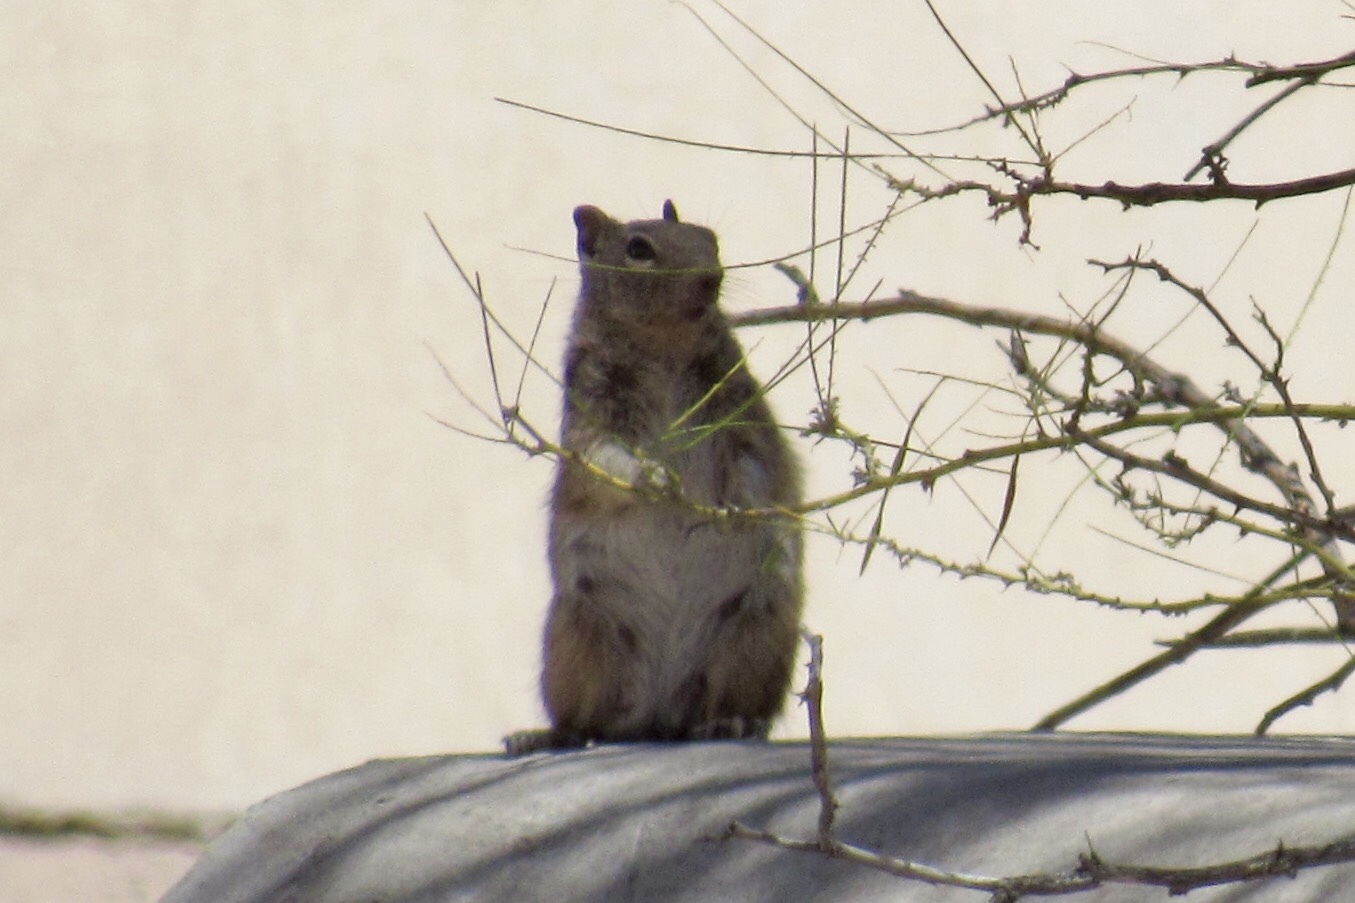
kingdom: Animalia
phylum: Chordata
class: Mammalia
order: Rodentia
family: Sciuridae
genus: Otospermophilus
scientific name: Otospermophilus variegatus
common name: Rock squirrel
